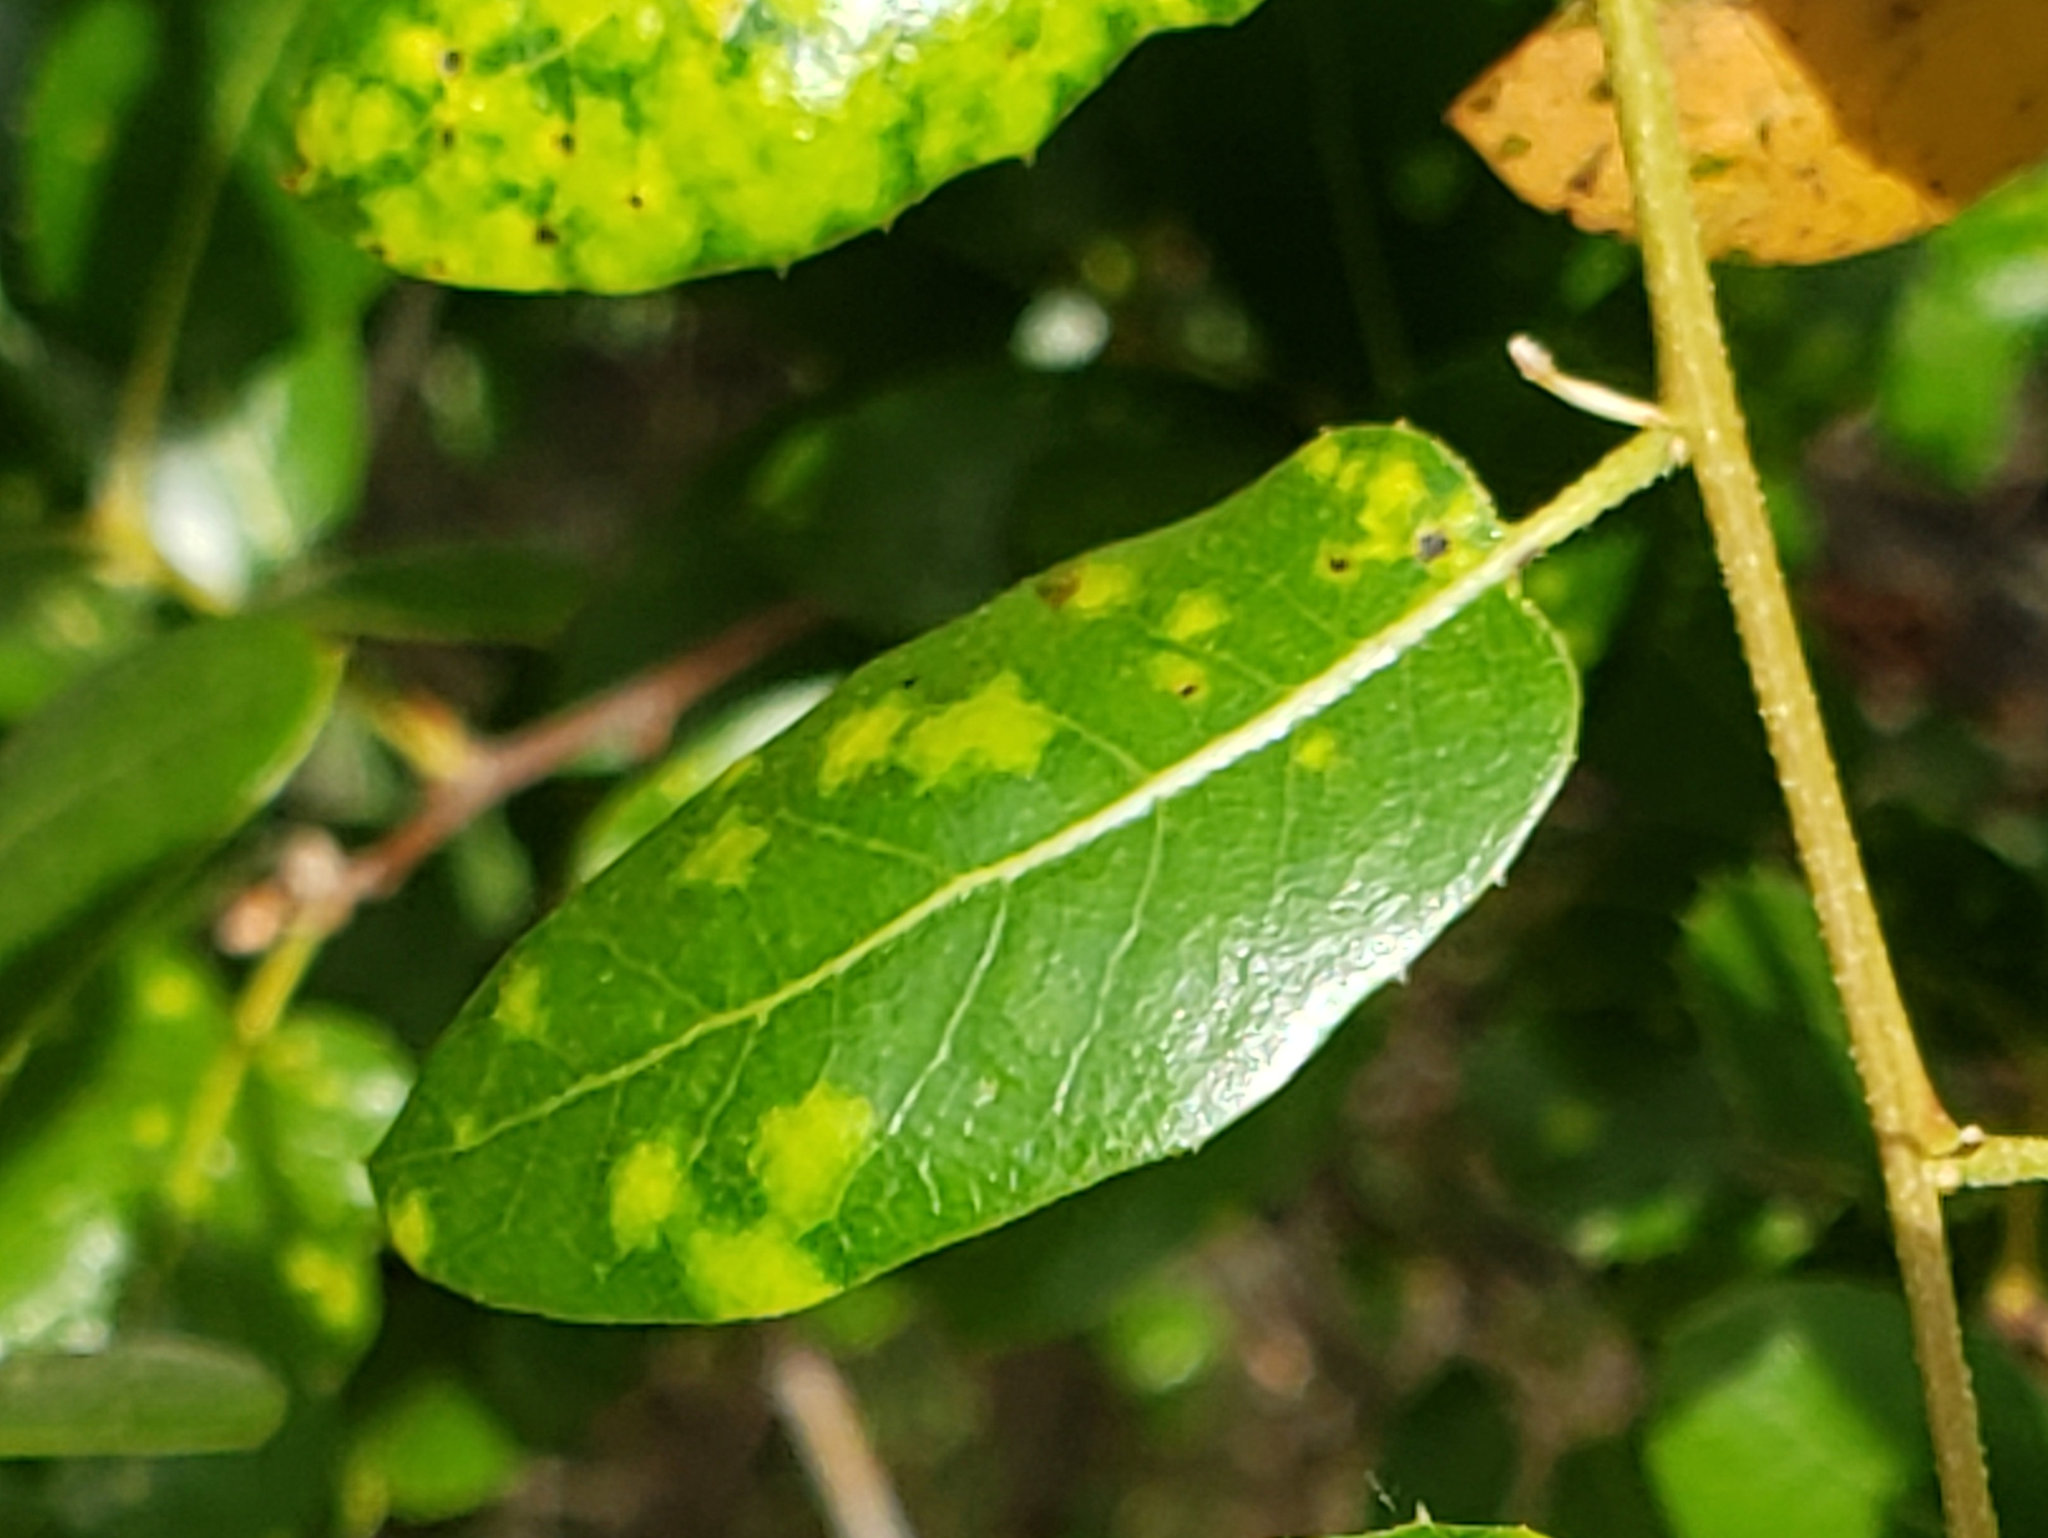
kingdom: Fungi
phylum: Ascomycota
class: Taphrinomycetes
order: Taphrinales
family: Taphrinaceae
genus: Taphrina
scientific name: Taphrina caerulescens
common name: Oak leaf blister
